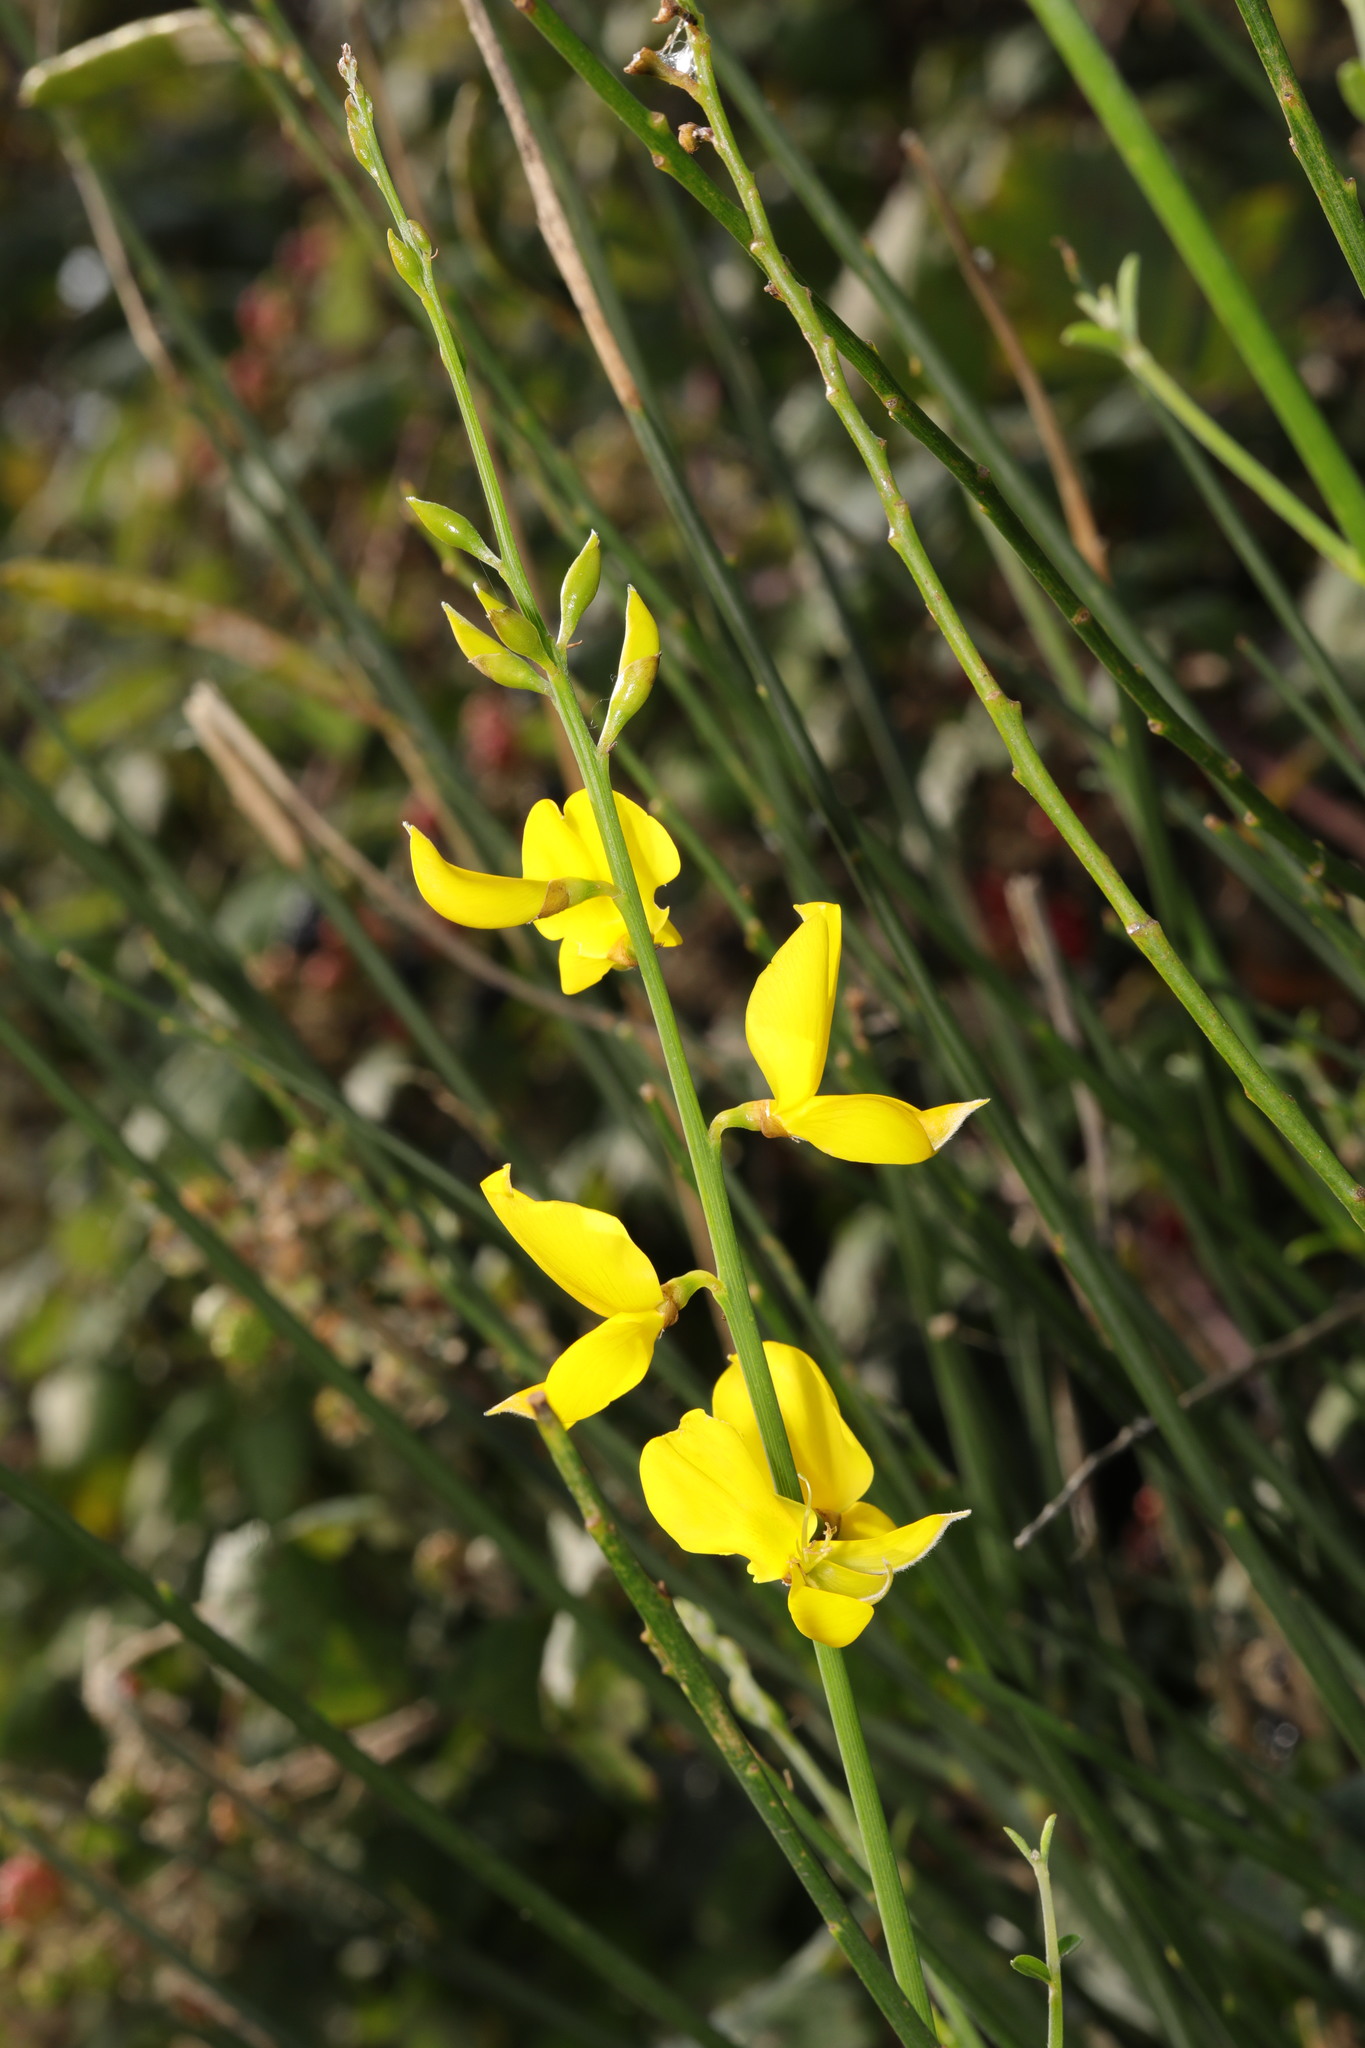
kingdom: Plantae
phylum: Tracheophyta
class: Magnoliopsida
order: Fabales
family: Fabaceae
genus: Spartium
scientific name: Spartium junceum
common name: Spanish broom
